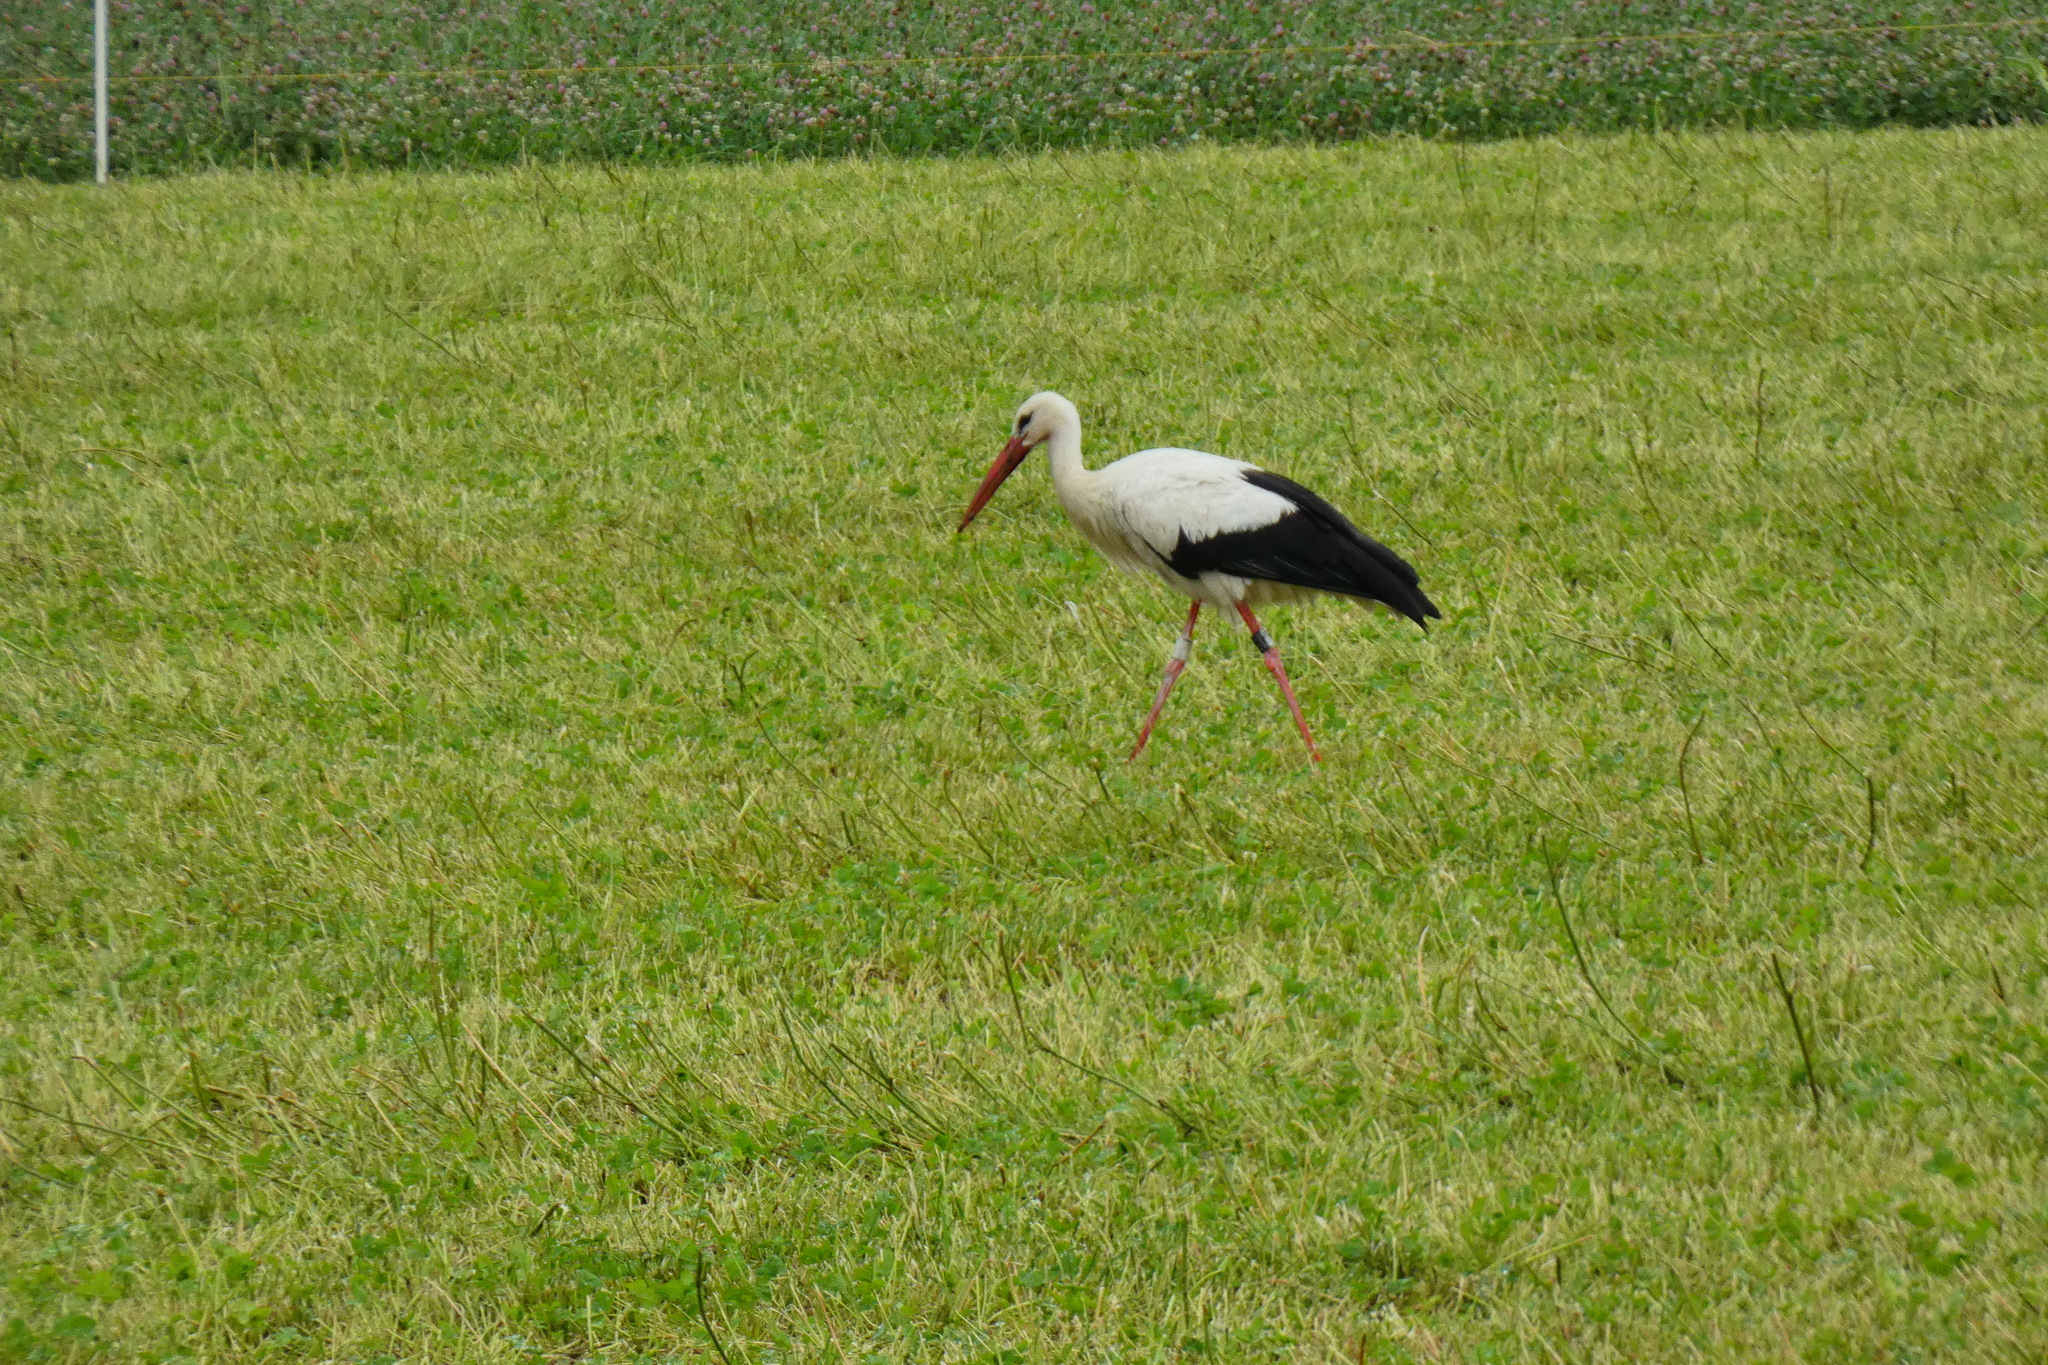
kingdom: Animalia
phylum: Chordata
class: Aves
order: Ciconiiformes
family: Ciconiidae
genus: Ciconia
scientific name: Ciconia ciconia
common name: White stork
